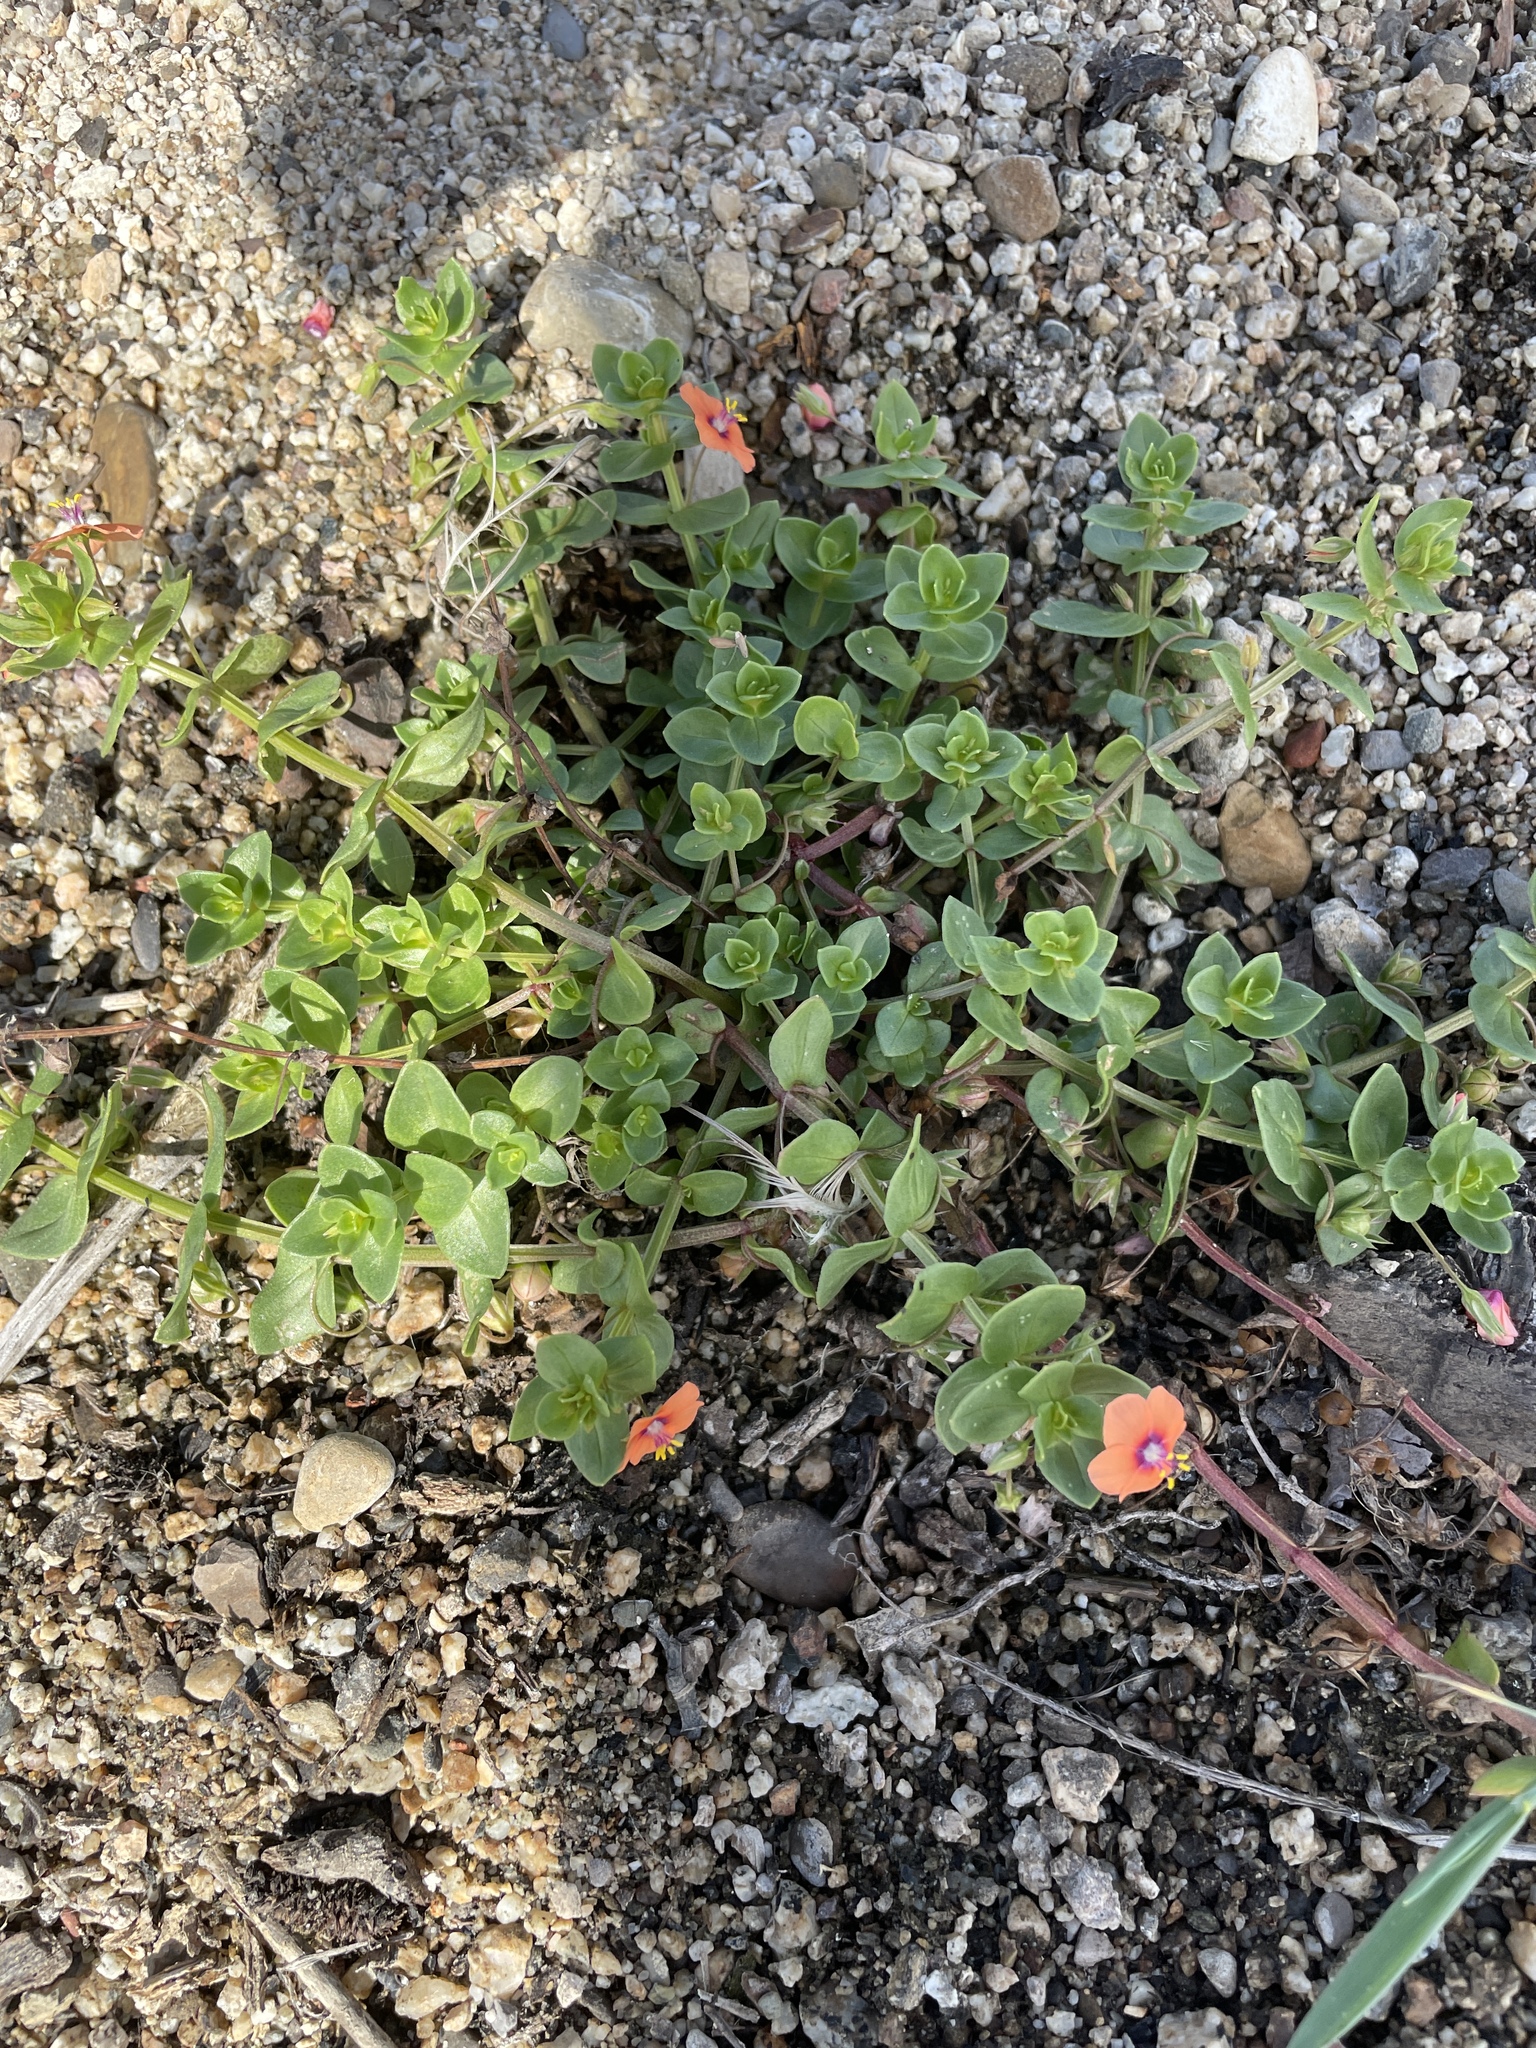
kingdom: Plantae
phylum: Tracheophyta
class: Magnoliopsida
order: Ericales
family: Primulaceae
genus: Lysimachia
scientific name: Lysimachia arvensis
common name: Scarlet pimpernel
